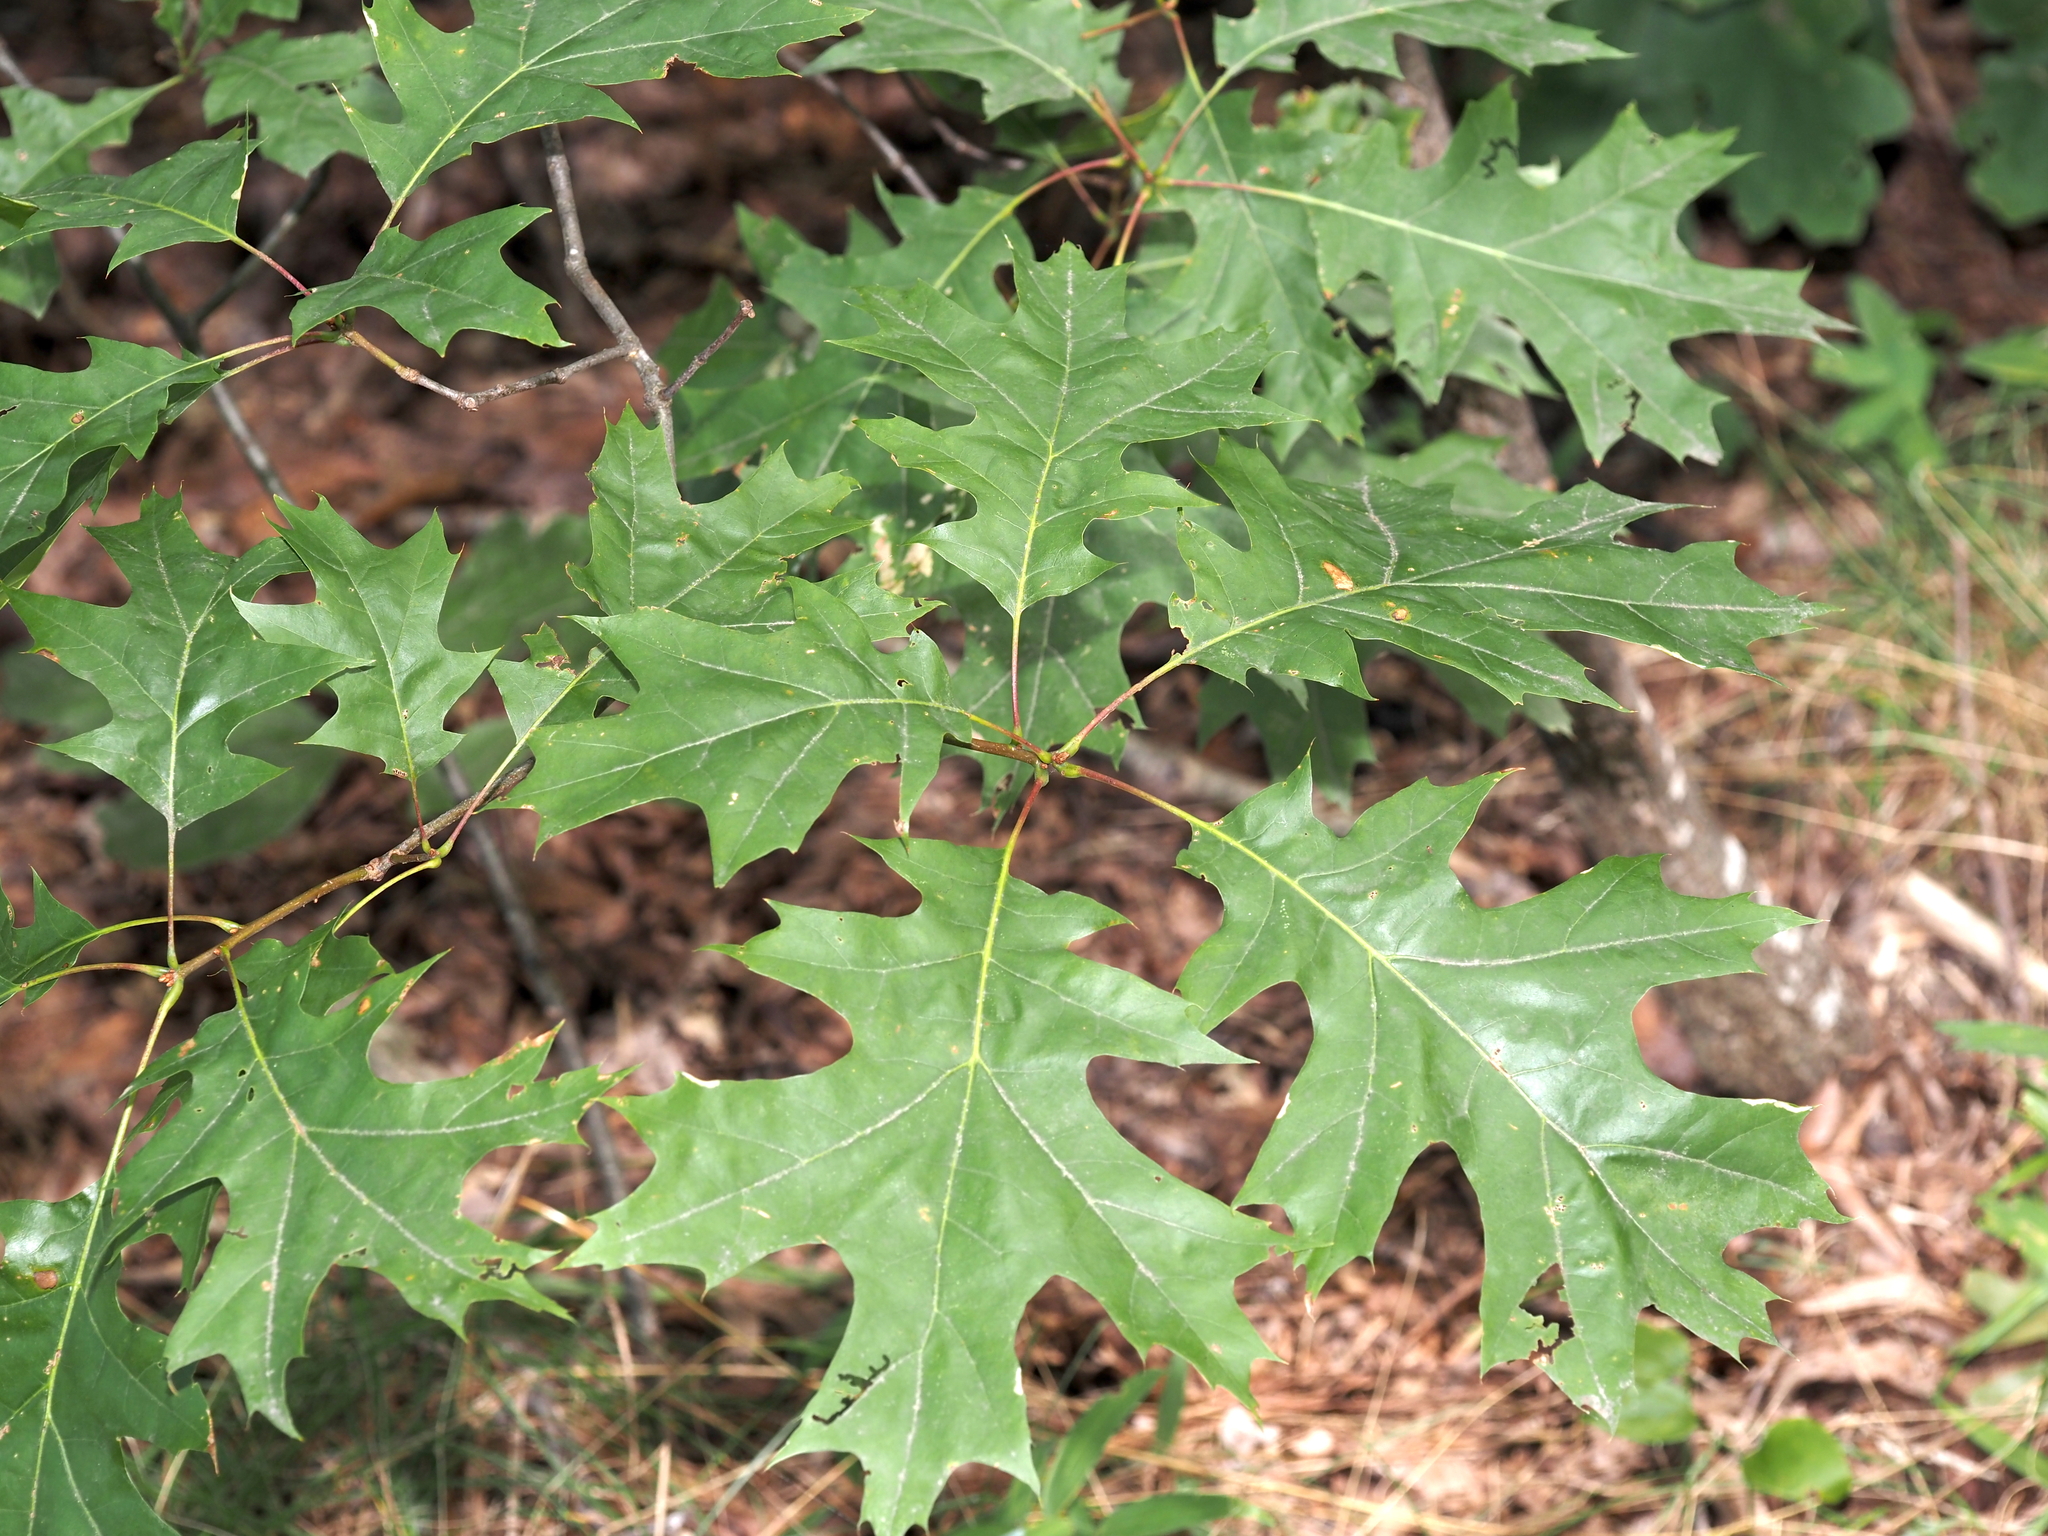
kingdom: Plantae
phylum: Tracheophyta
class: Magnoliopsida
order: Fagales
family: Fagaceae
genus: Quercus
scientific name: Quercus coccinea
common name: Scarlet oak
